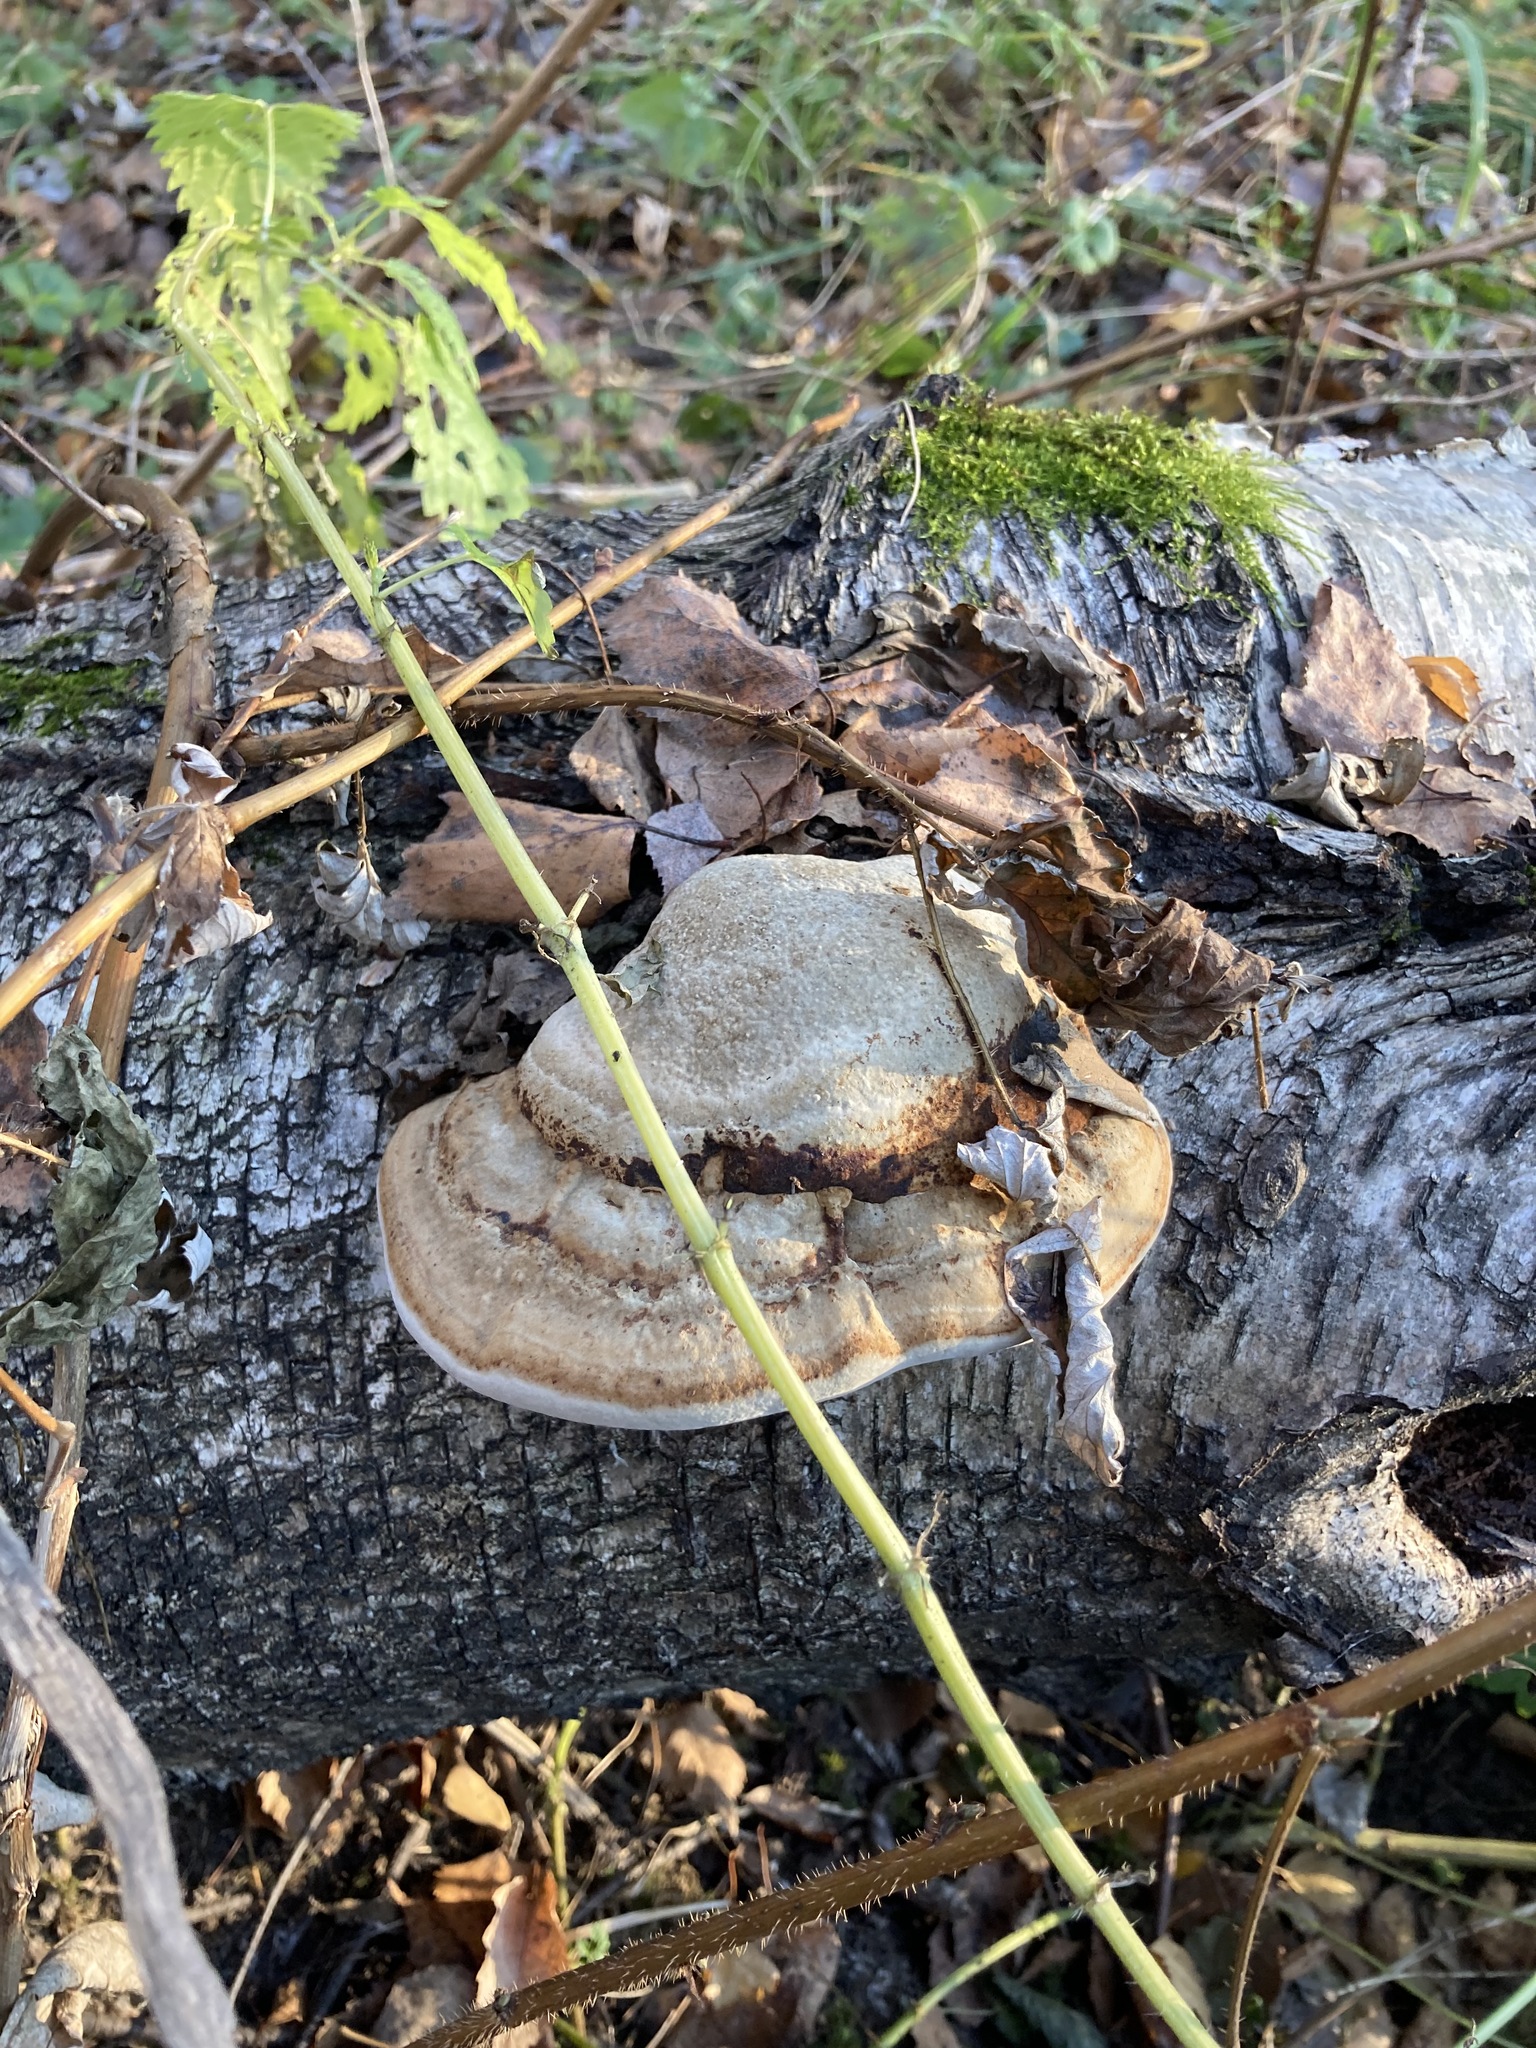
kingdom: Fungi
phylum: Basidiomycota
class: Agaricomycetes
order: Polyporales
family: Polyporaceae
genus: Fomes
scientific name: Fomes fomentarius
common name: Hoof fungus
